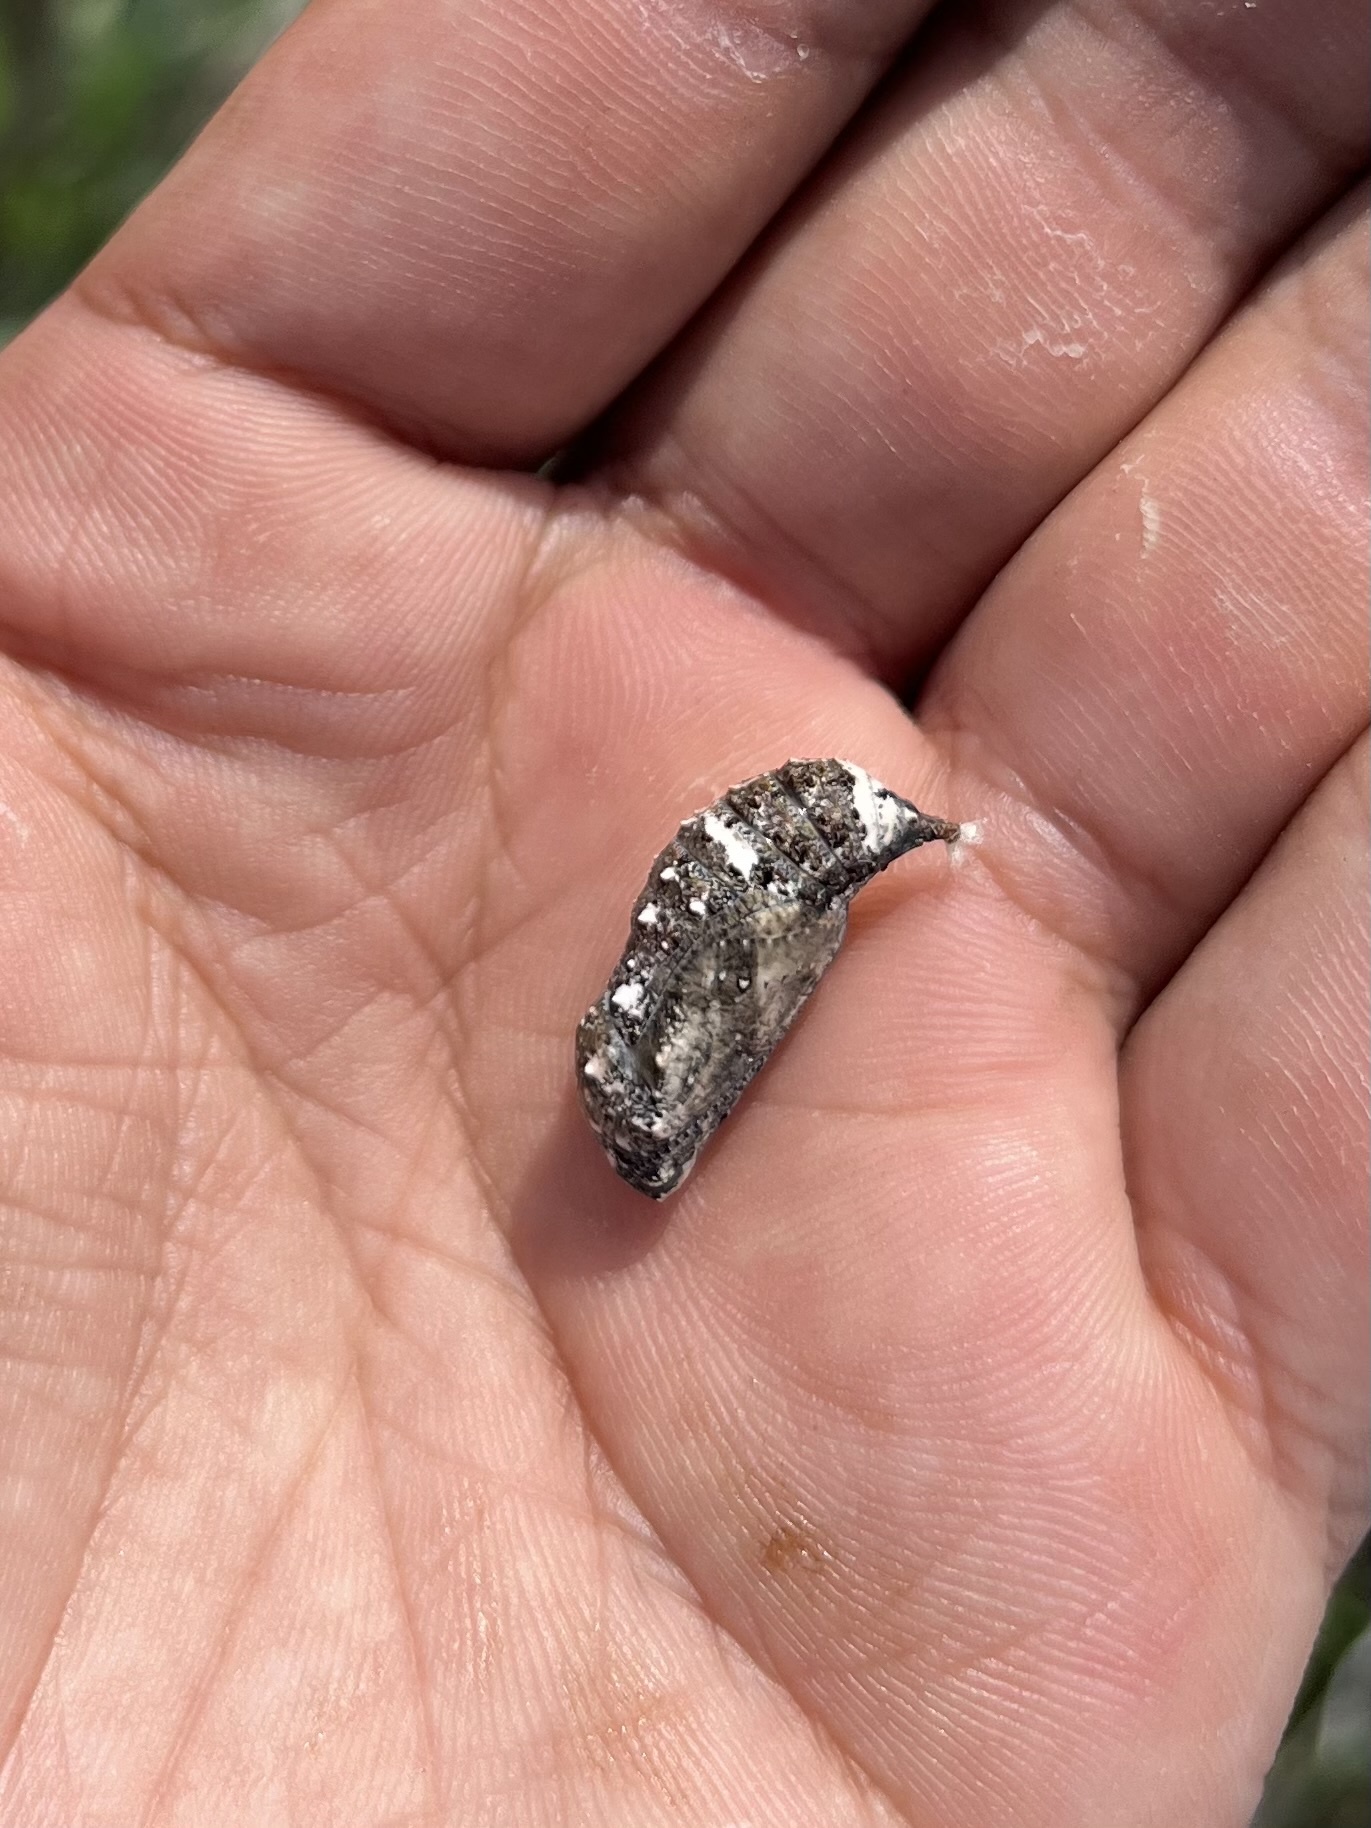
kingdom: Animalia
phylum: Arthropoda
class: Insecta
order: Lepidoptera
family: Nymphalidae
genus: Junonia
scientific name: Junonia coenia
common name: Common buckeye
